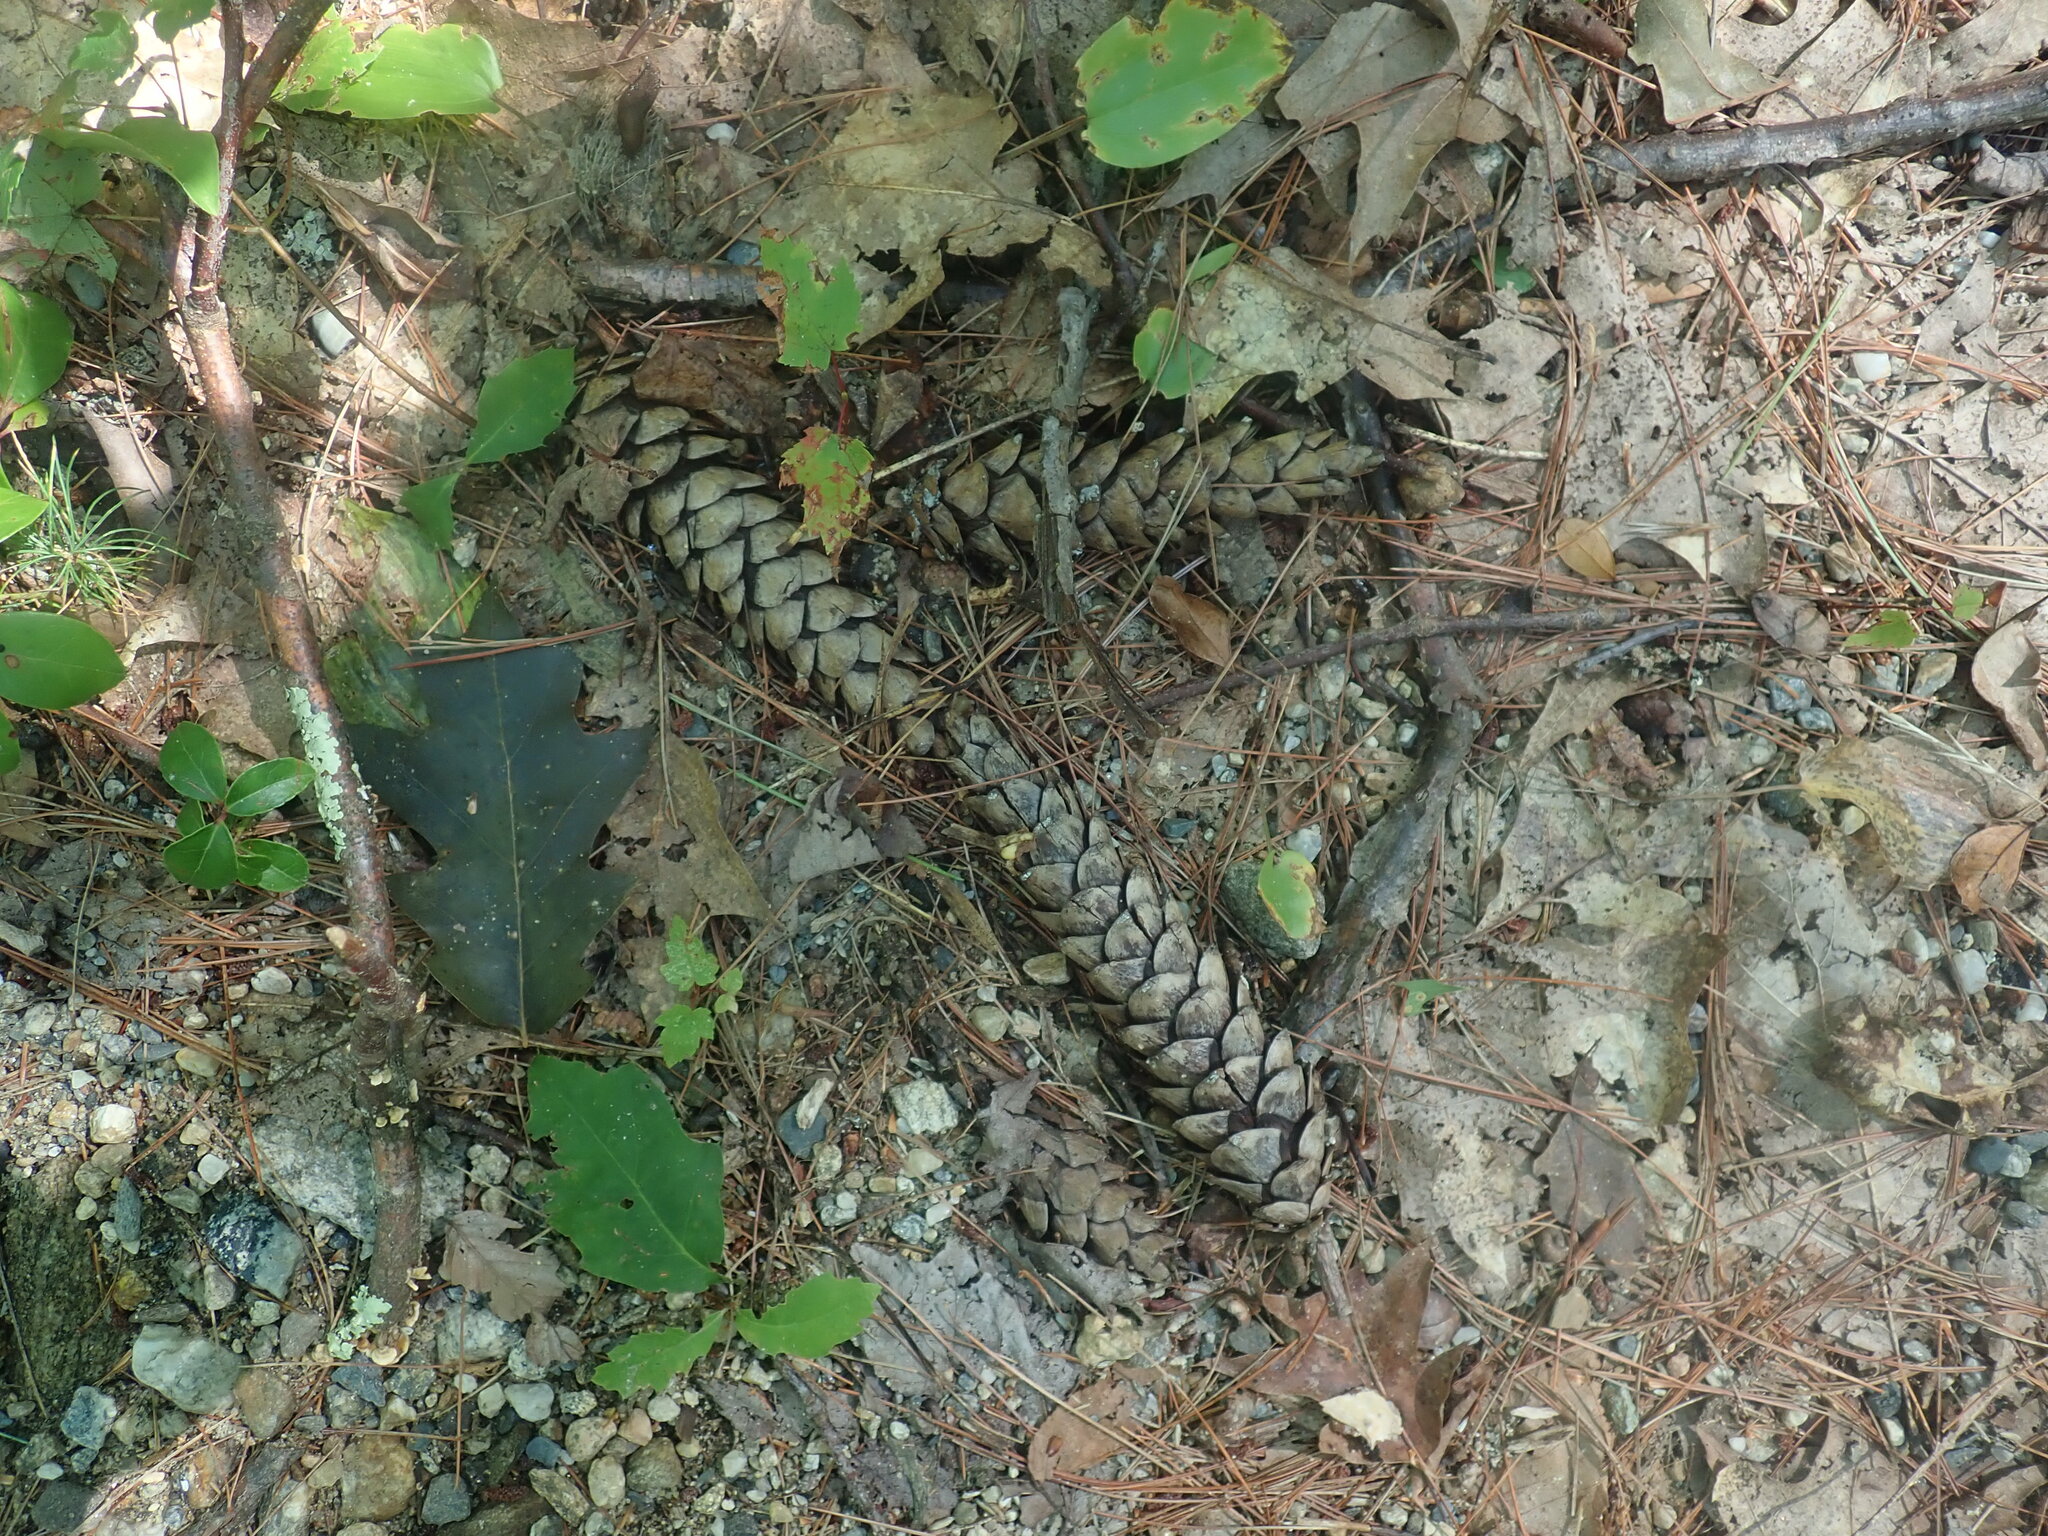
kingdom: Plantae
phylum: Tracheophyta
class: Pinopsida
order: Pinales
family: Pinaceae
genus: Pinus
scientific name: Pinus strobus
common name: Weymouth pine
